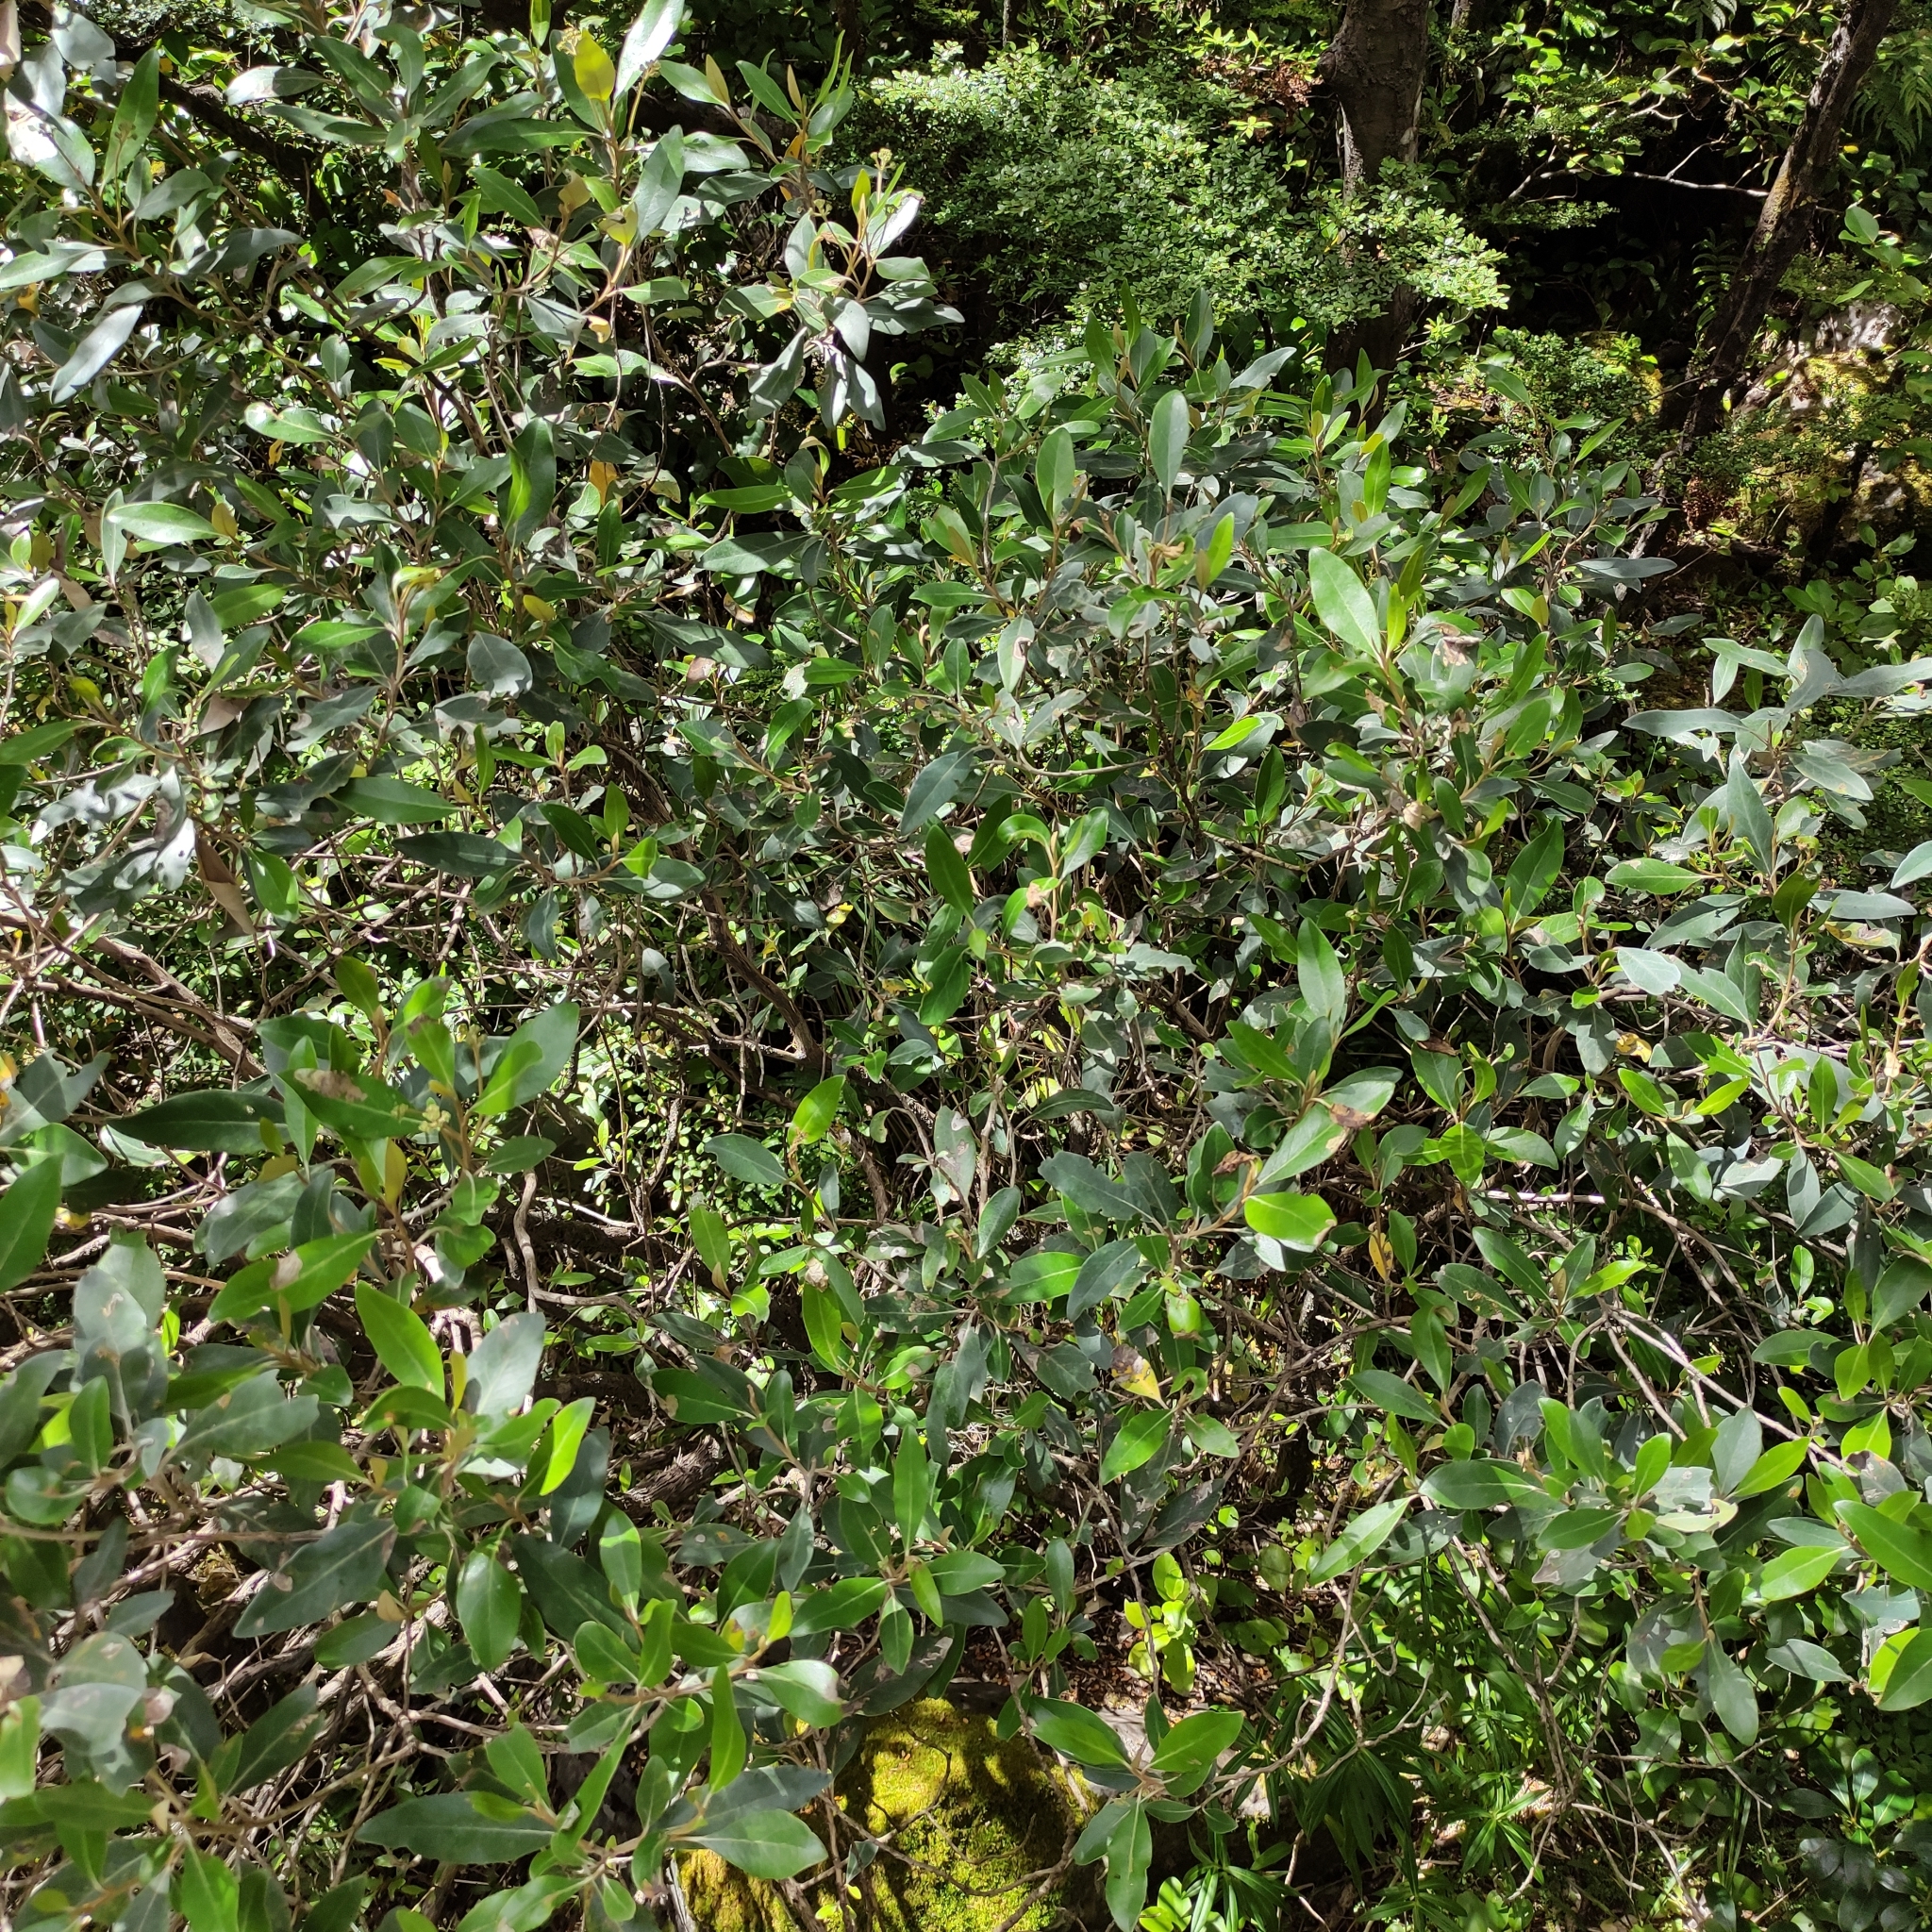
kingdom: Plantae
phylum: Tracheophyta
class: Magnoliopsida
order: Asterales
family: Asteraceae
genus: Olearia
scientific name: Olearia avicenniifolia
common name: Mangrove-leaf daisybush
